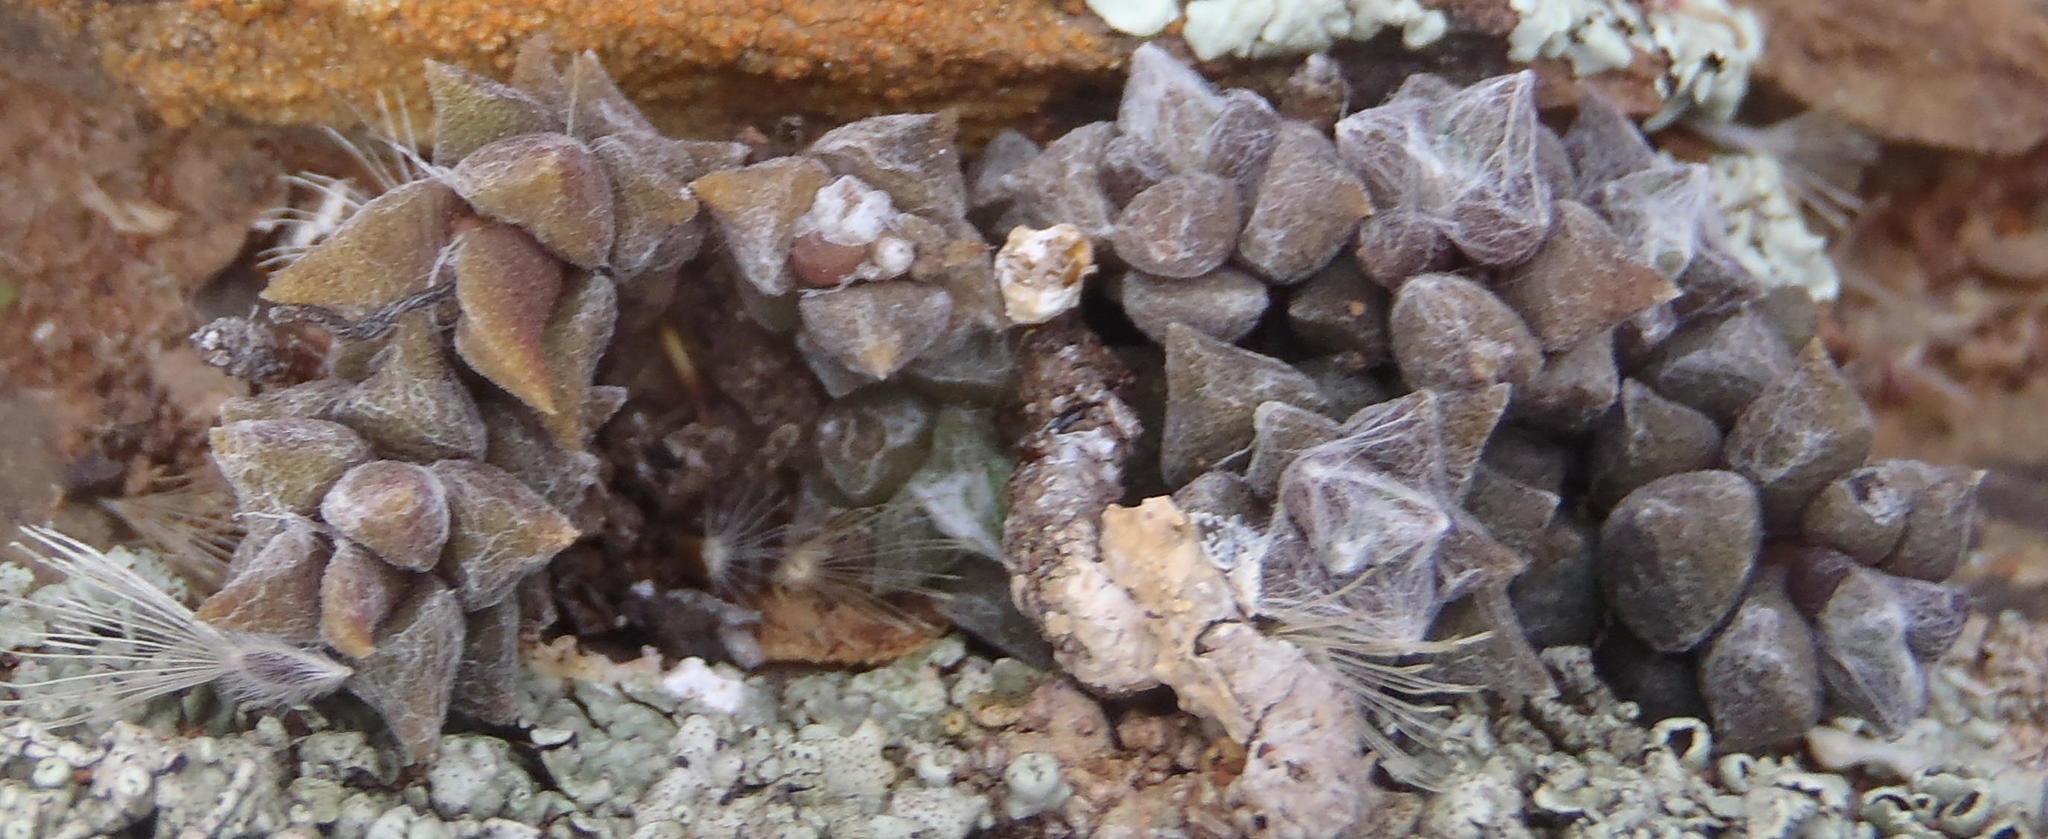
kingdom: Plantae
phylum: Tracheophyta
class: Magnoliopsida
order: Caryophyllales
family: Anacampserotaceae
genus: Anacampseros
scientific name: Anacampseros arachnoides
